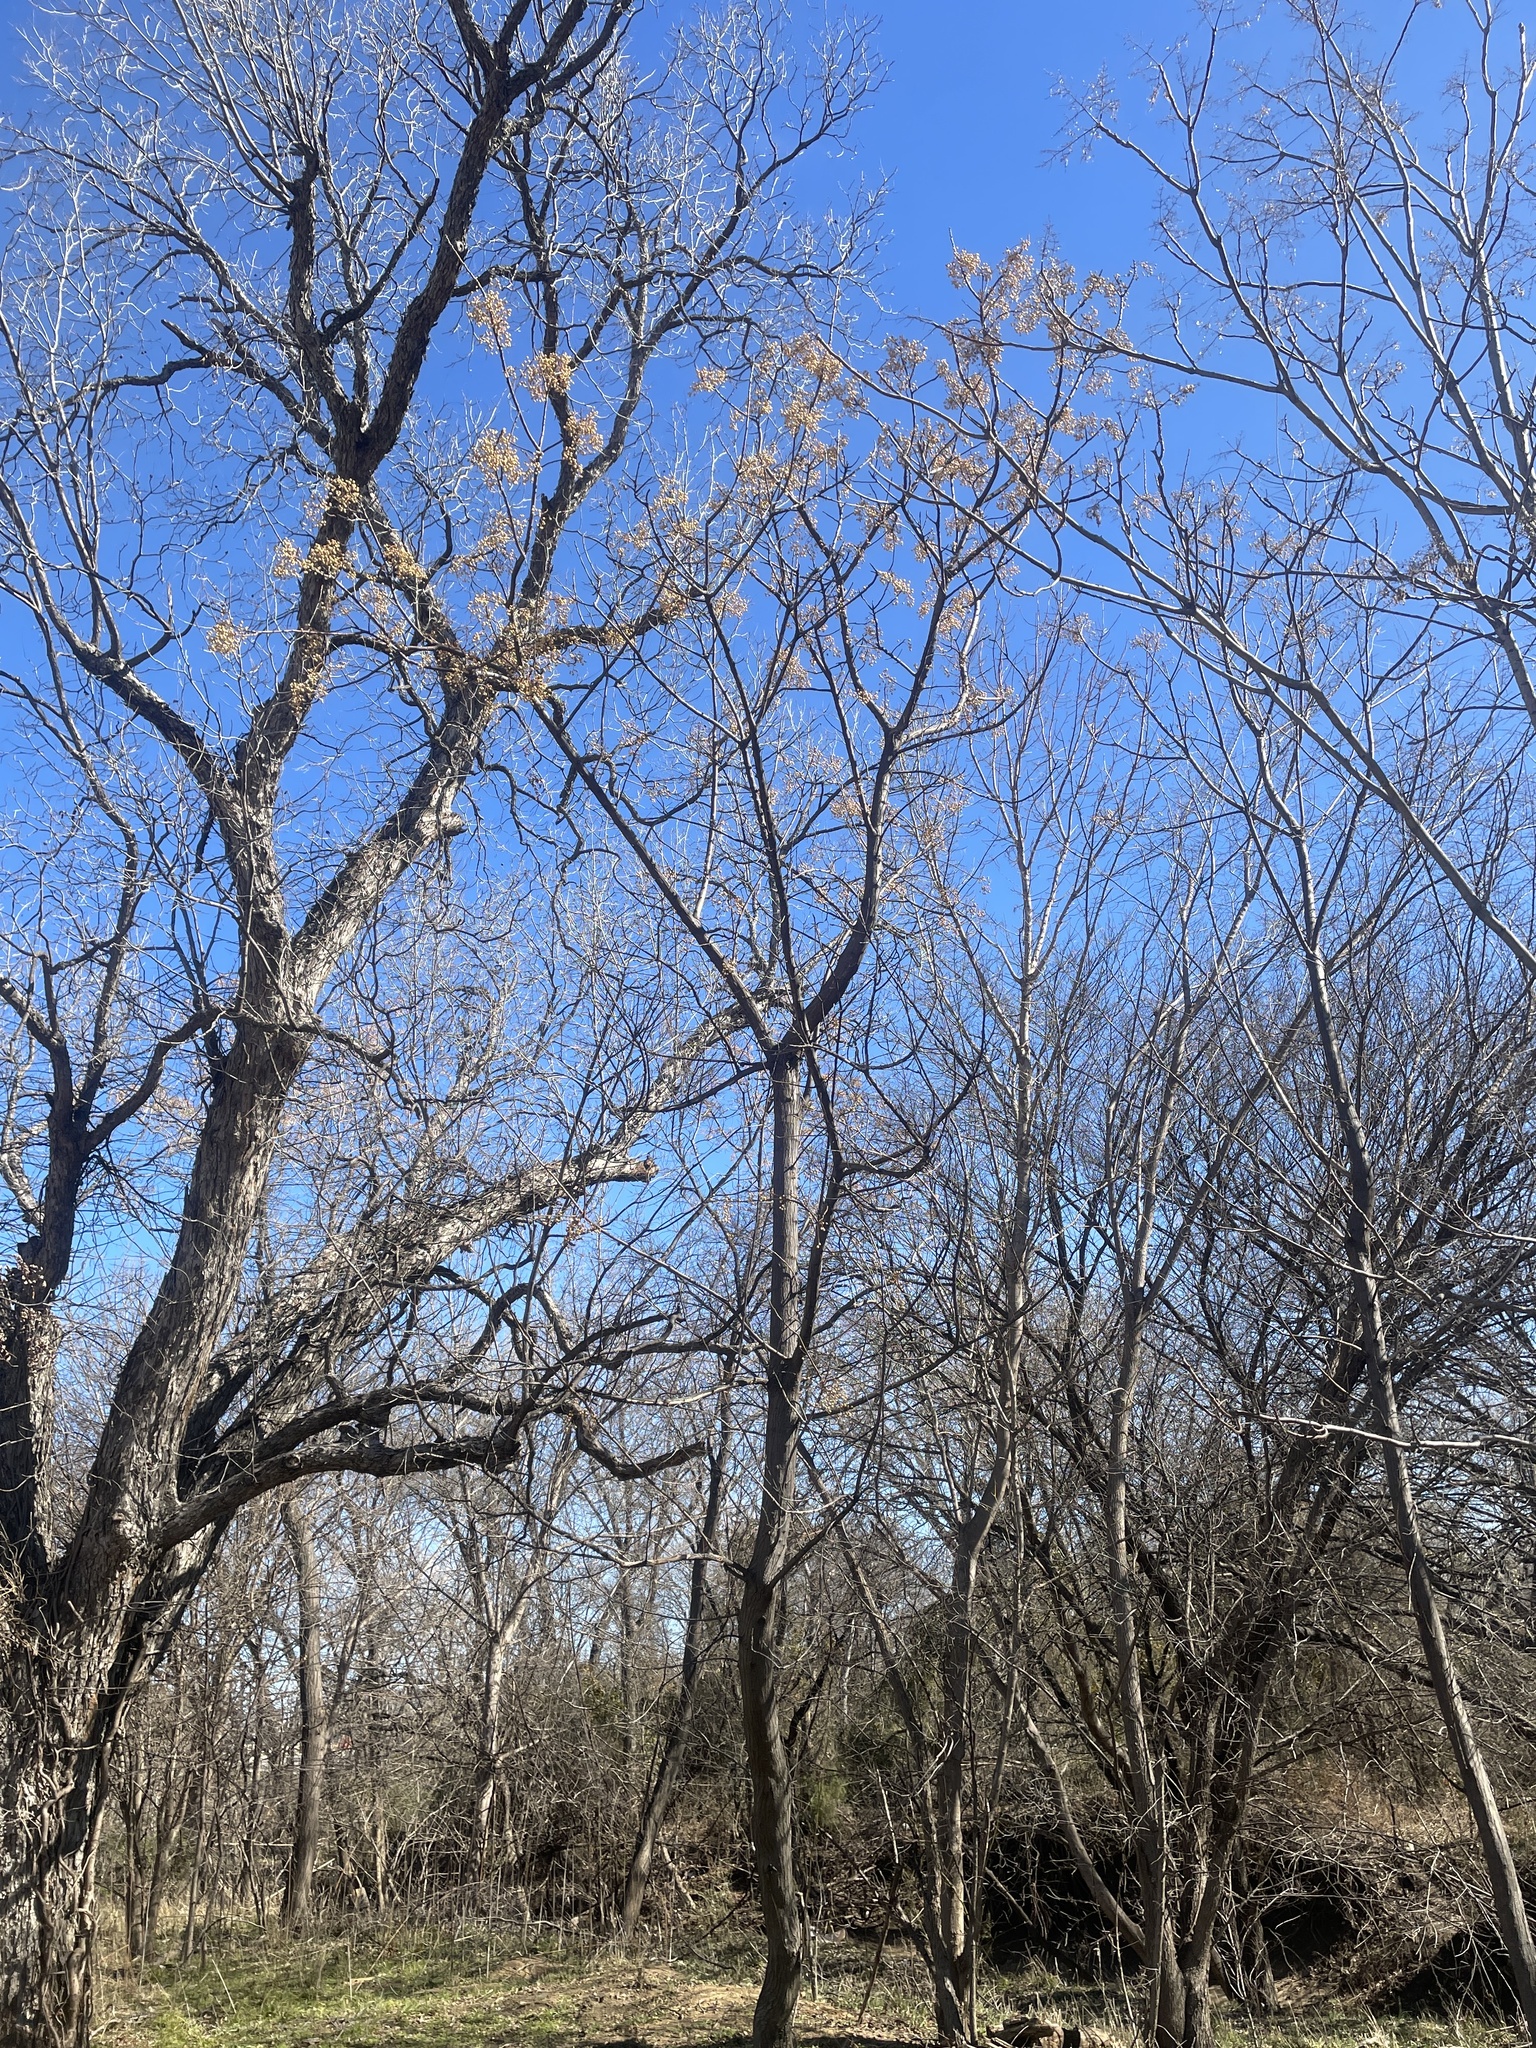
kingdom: Plantae
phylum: Tracheophyta
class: Magnoliopsida
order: Sapindales
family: Meliaceae
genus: Melia
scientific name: Melia azedarach
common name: Chinaberrytree
